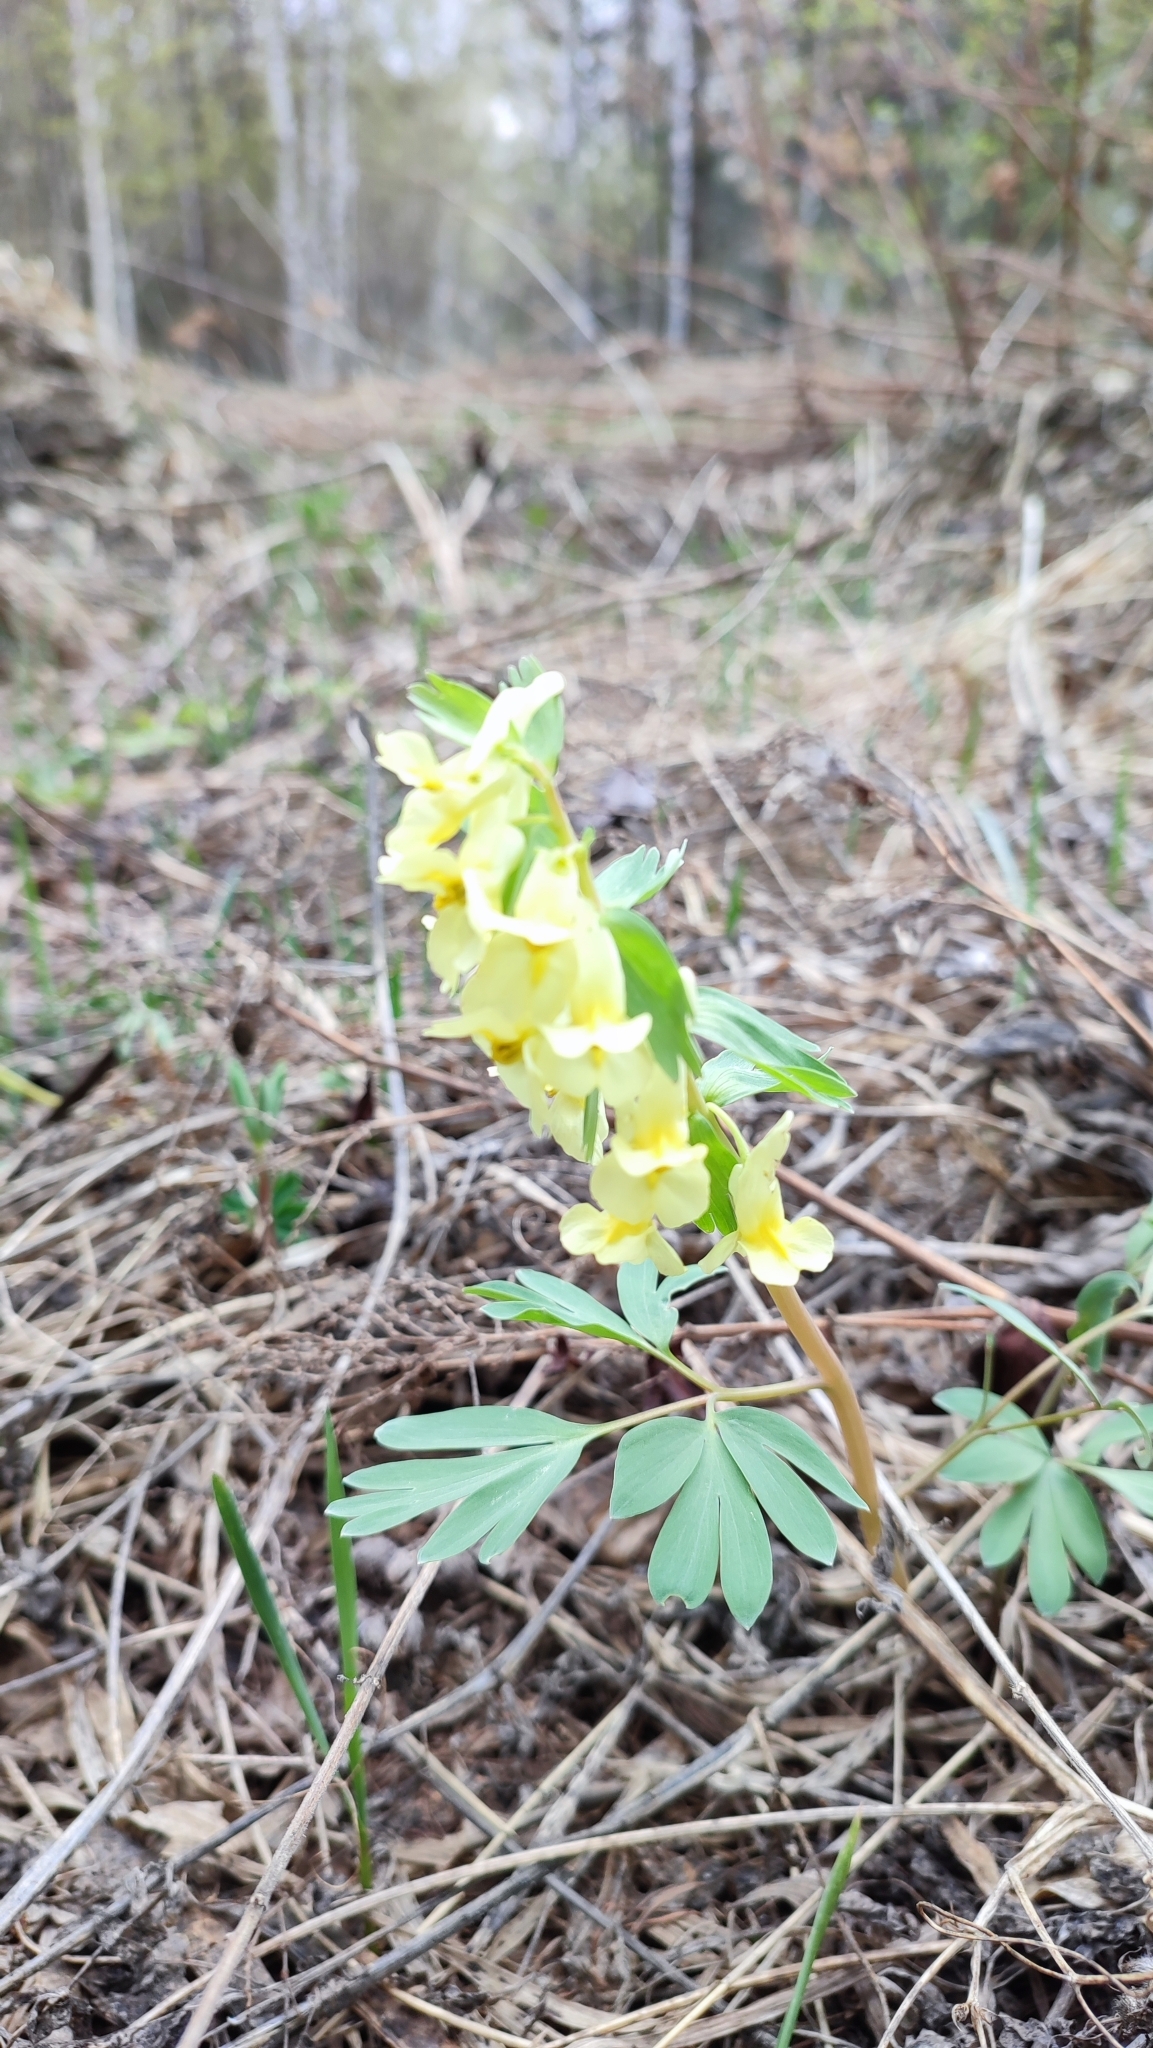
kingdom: Plantae
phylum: Tracheophyta
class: Magnoliopsida
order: Ranunculales
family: Papaveraceae
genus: Corydalis
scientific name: Corydalis bracteata
